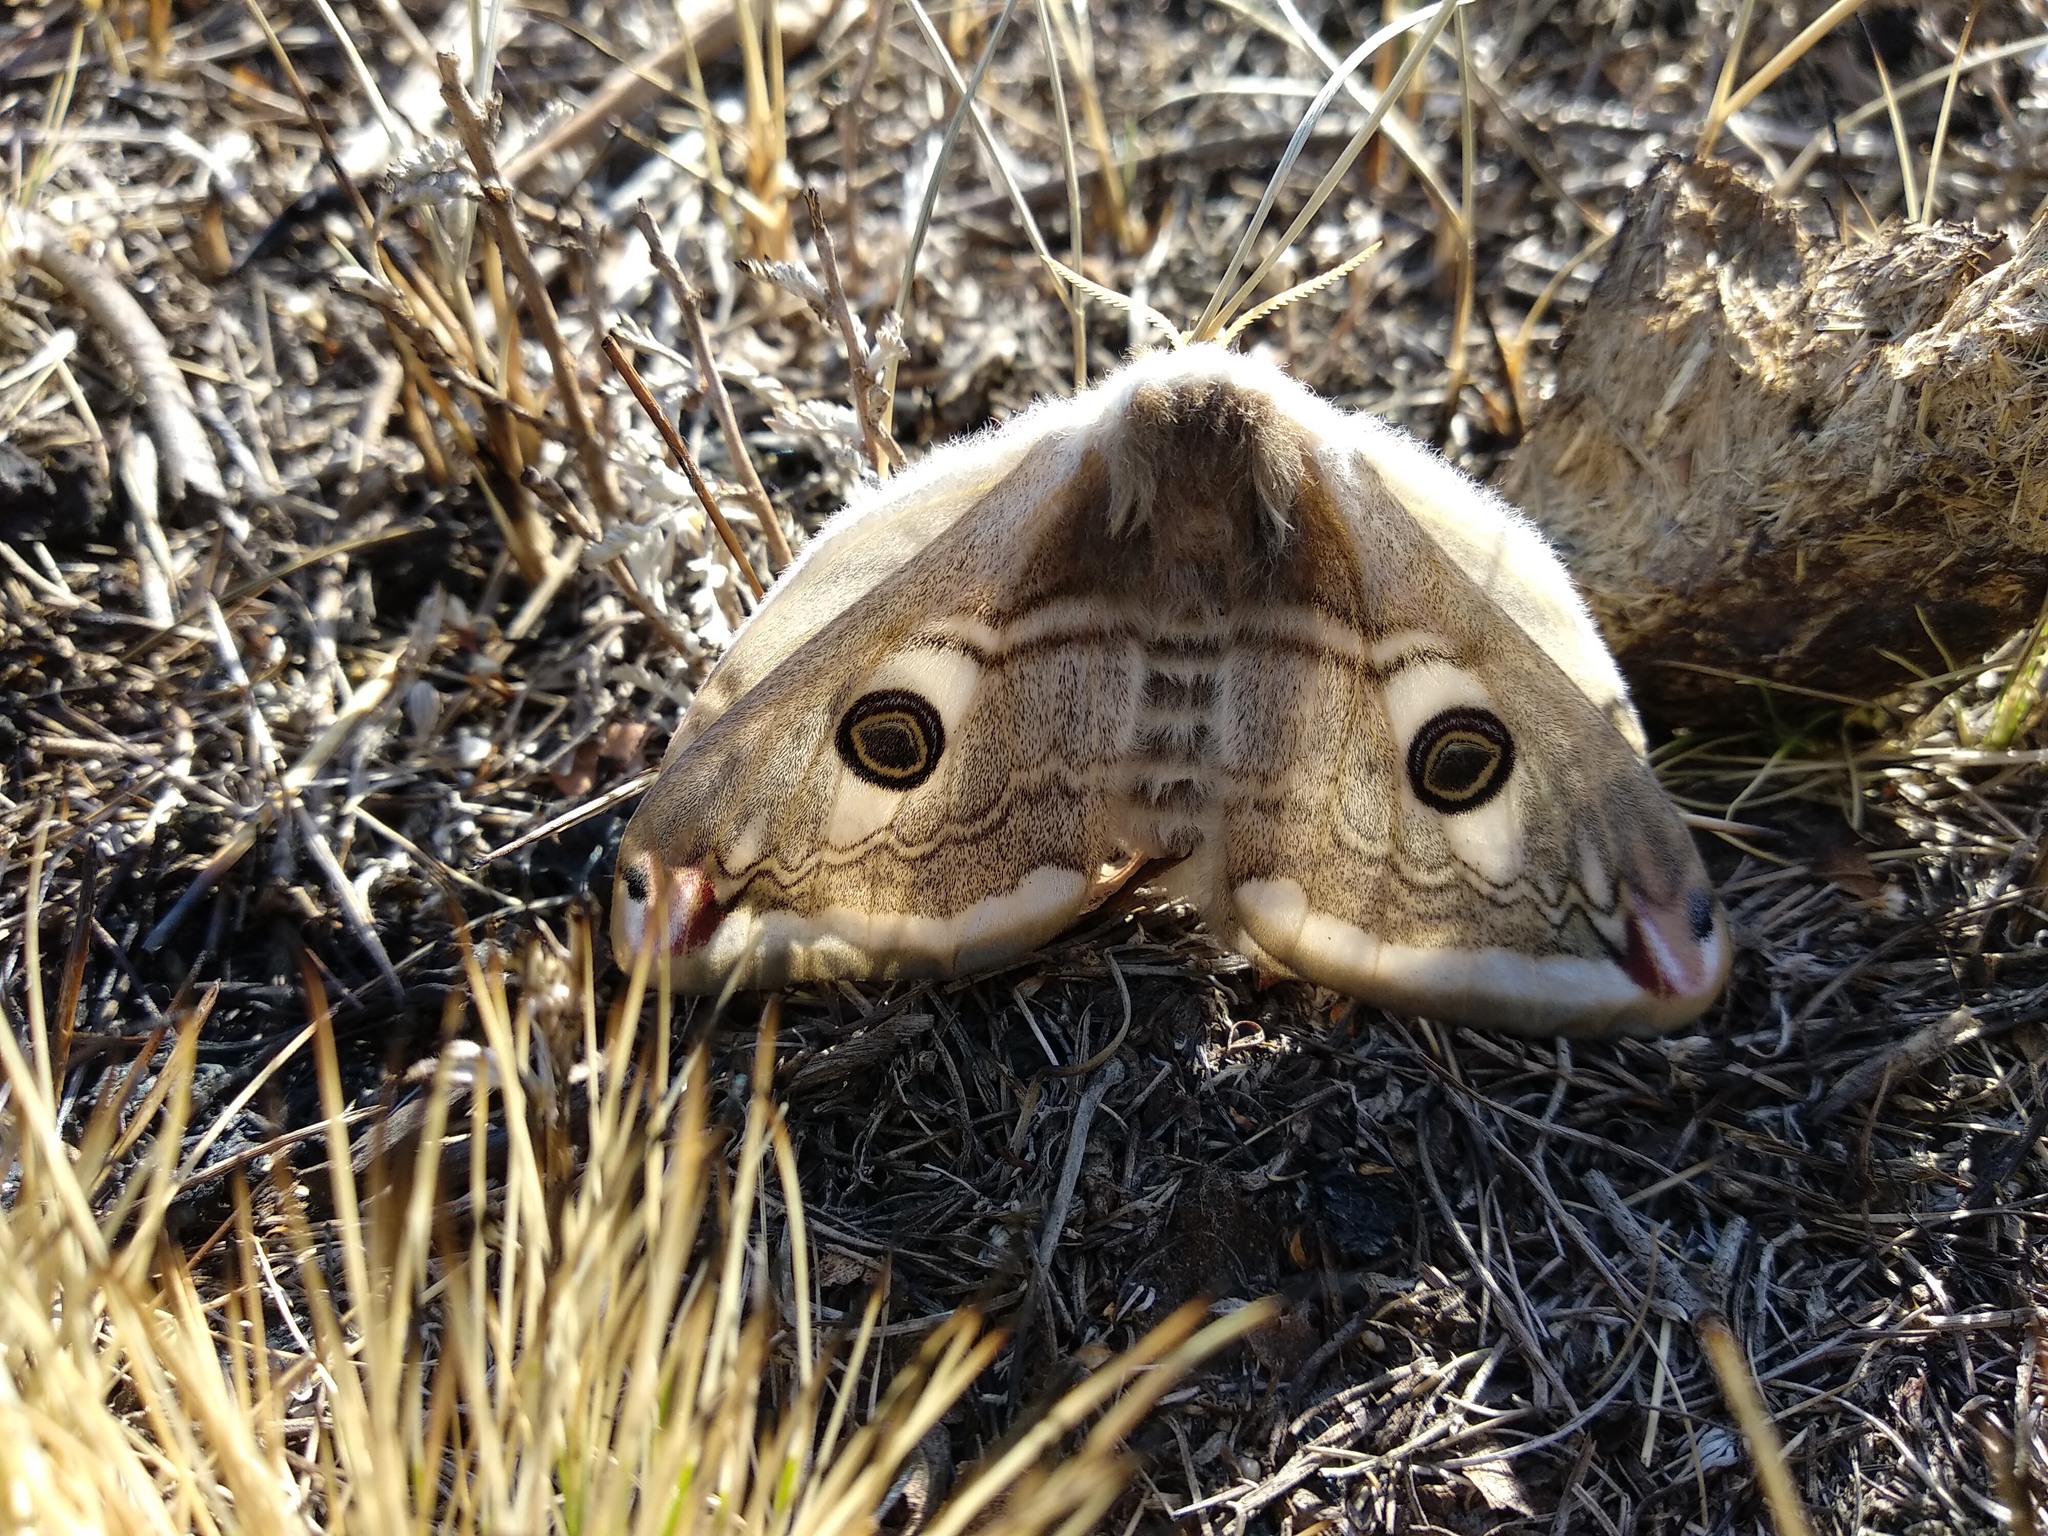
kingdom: Animalia
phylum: Arthropoda
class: Insecta
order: Lepidoptera
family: Saturniidae
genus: Saturnia
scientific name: Saturnia pavonia
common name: Emperor moth
